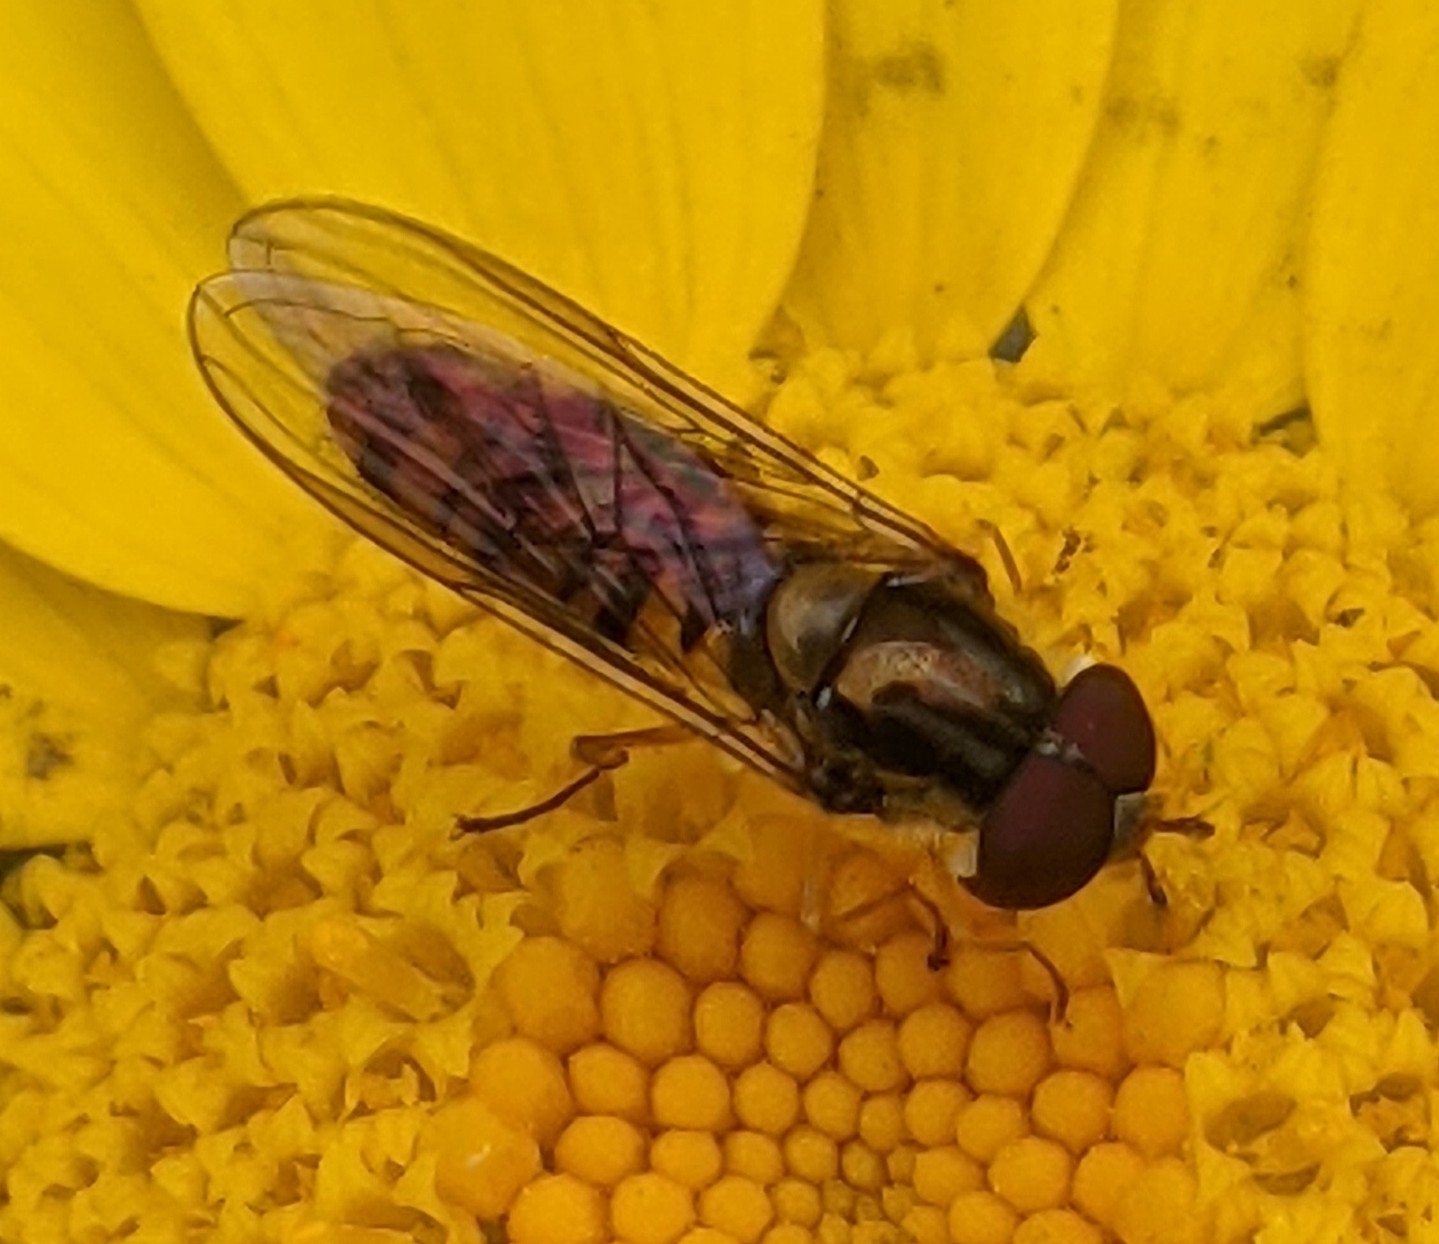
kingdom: Animalia
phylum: Arthropoda
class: Insecta
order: Diptera
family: Syrphidae
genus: Episyrphus
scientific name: Episyrphus balteatus
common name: Marmalade hoverfly
